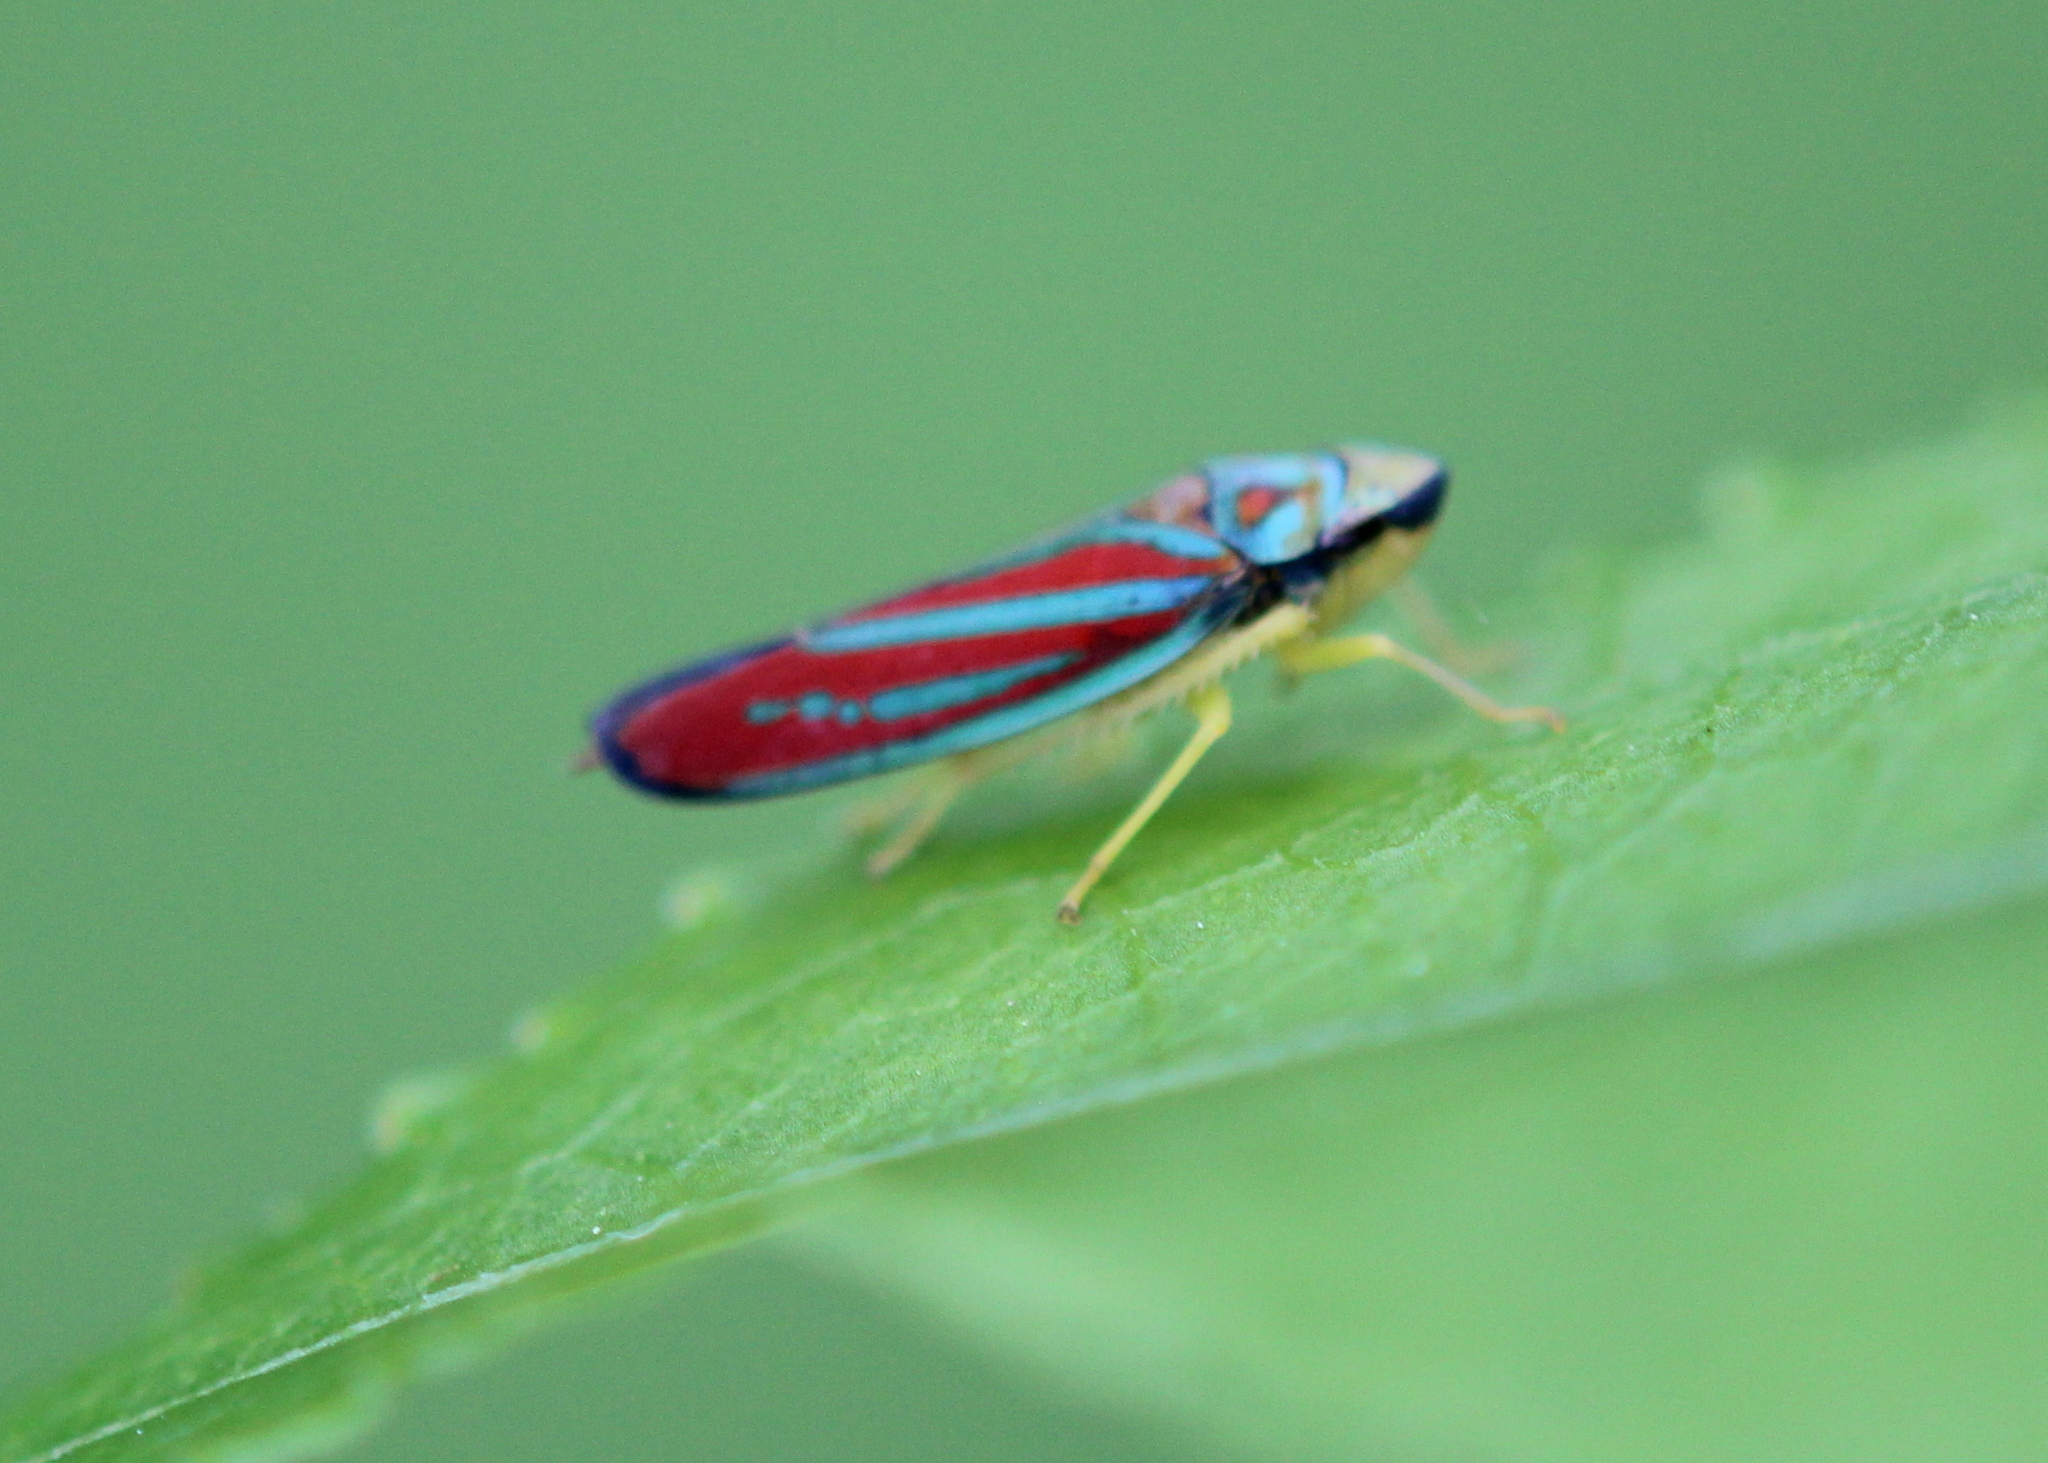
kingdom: Animalia
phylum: Arthropoda
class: Insecta
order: Hemiptera
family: Cicadellidae
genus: Graphocephala
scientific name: Graphocephala coccinea
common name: Candy-striped leafhopper
